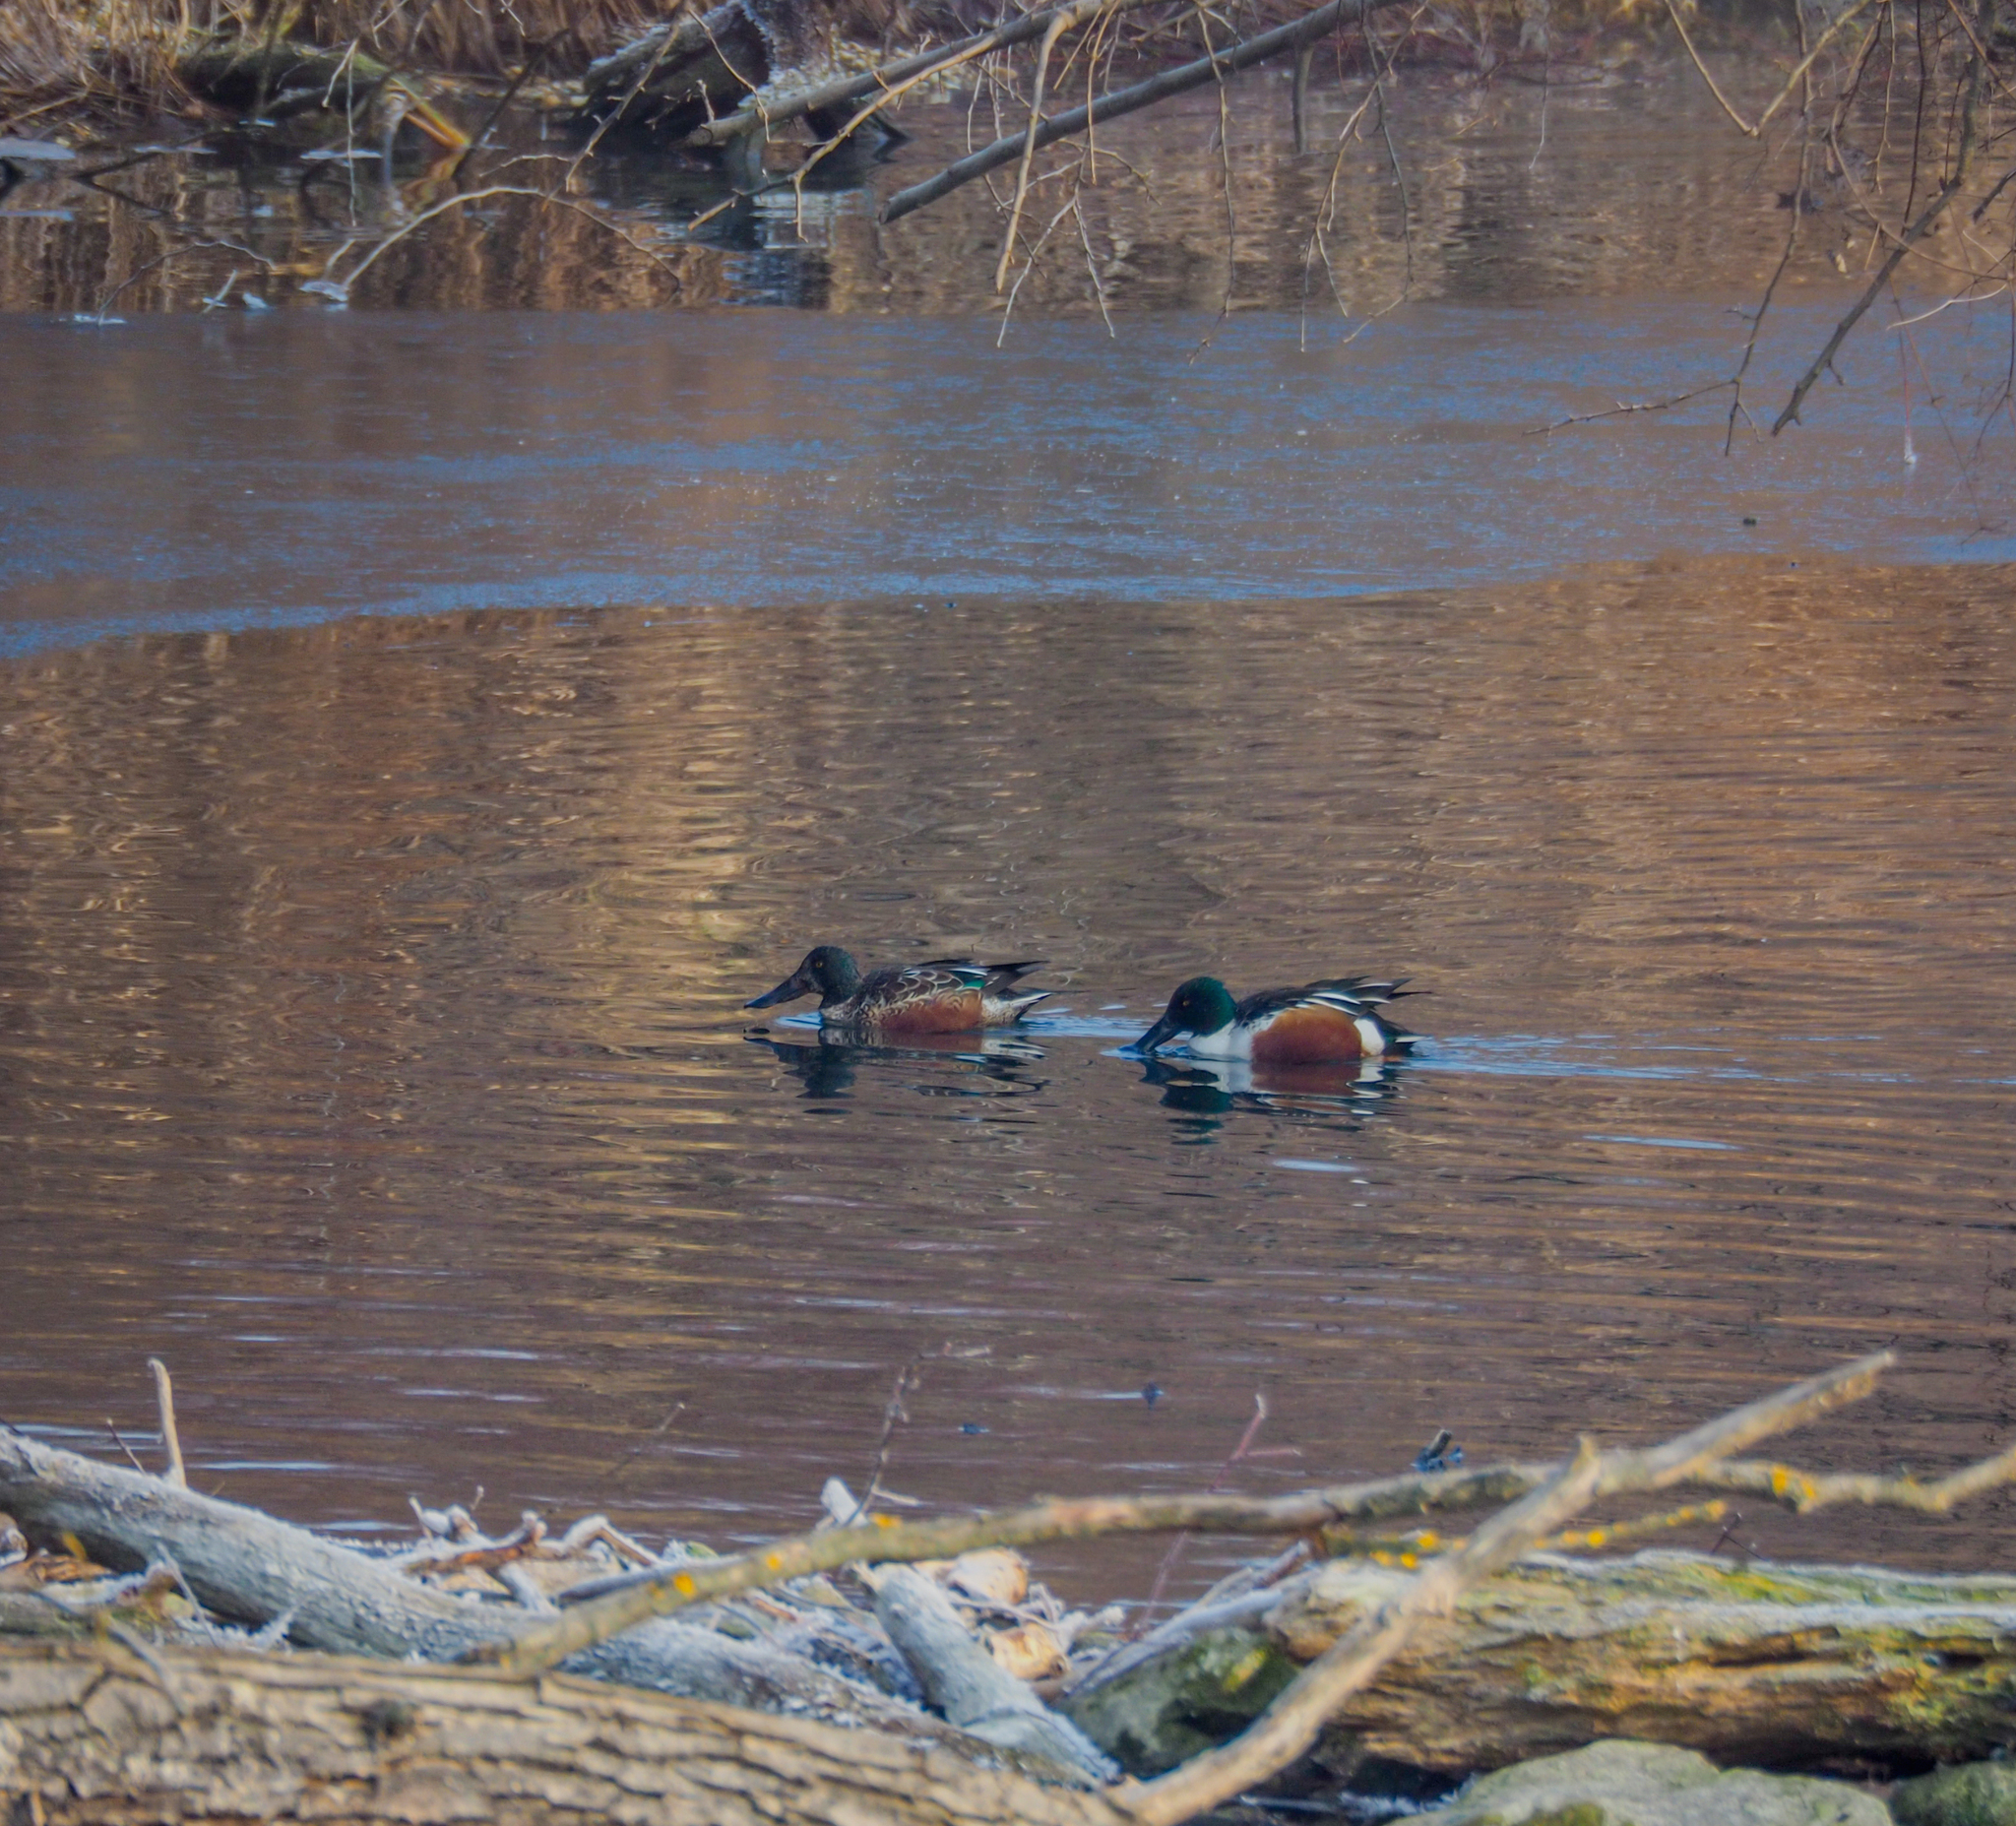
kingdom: Animalia
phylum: Chordata
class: Aves
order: Anseriformes
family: Anatidae
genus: Spatula
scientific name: Spatula clypeata
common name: Northern shoveler
